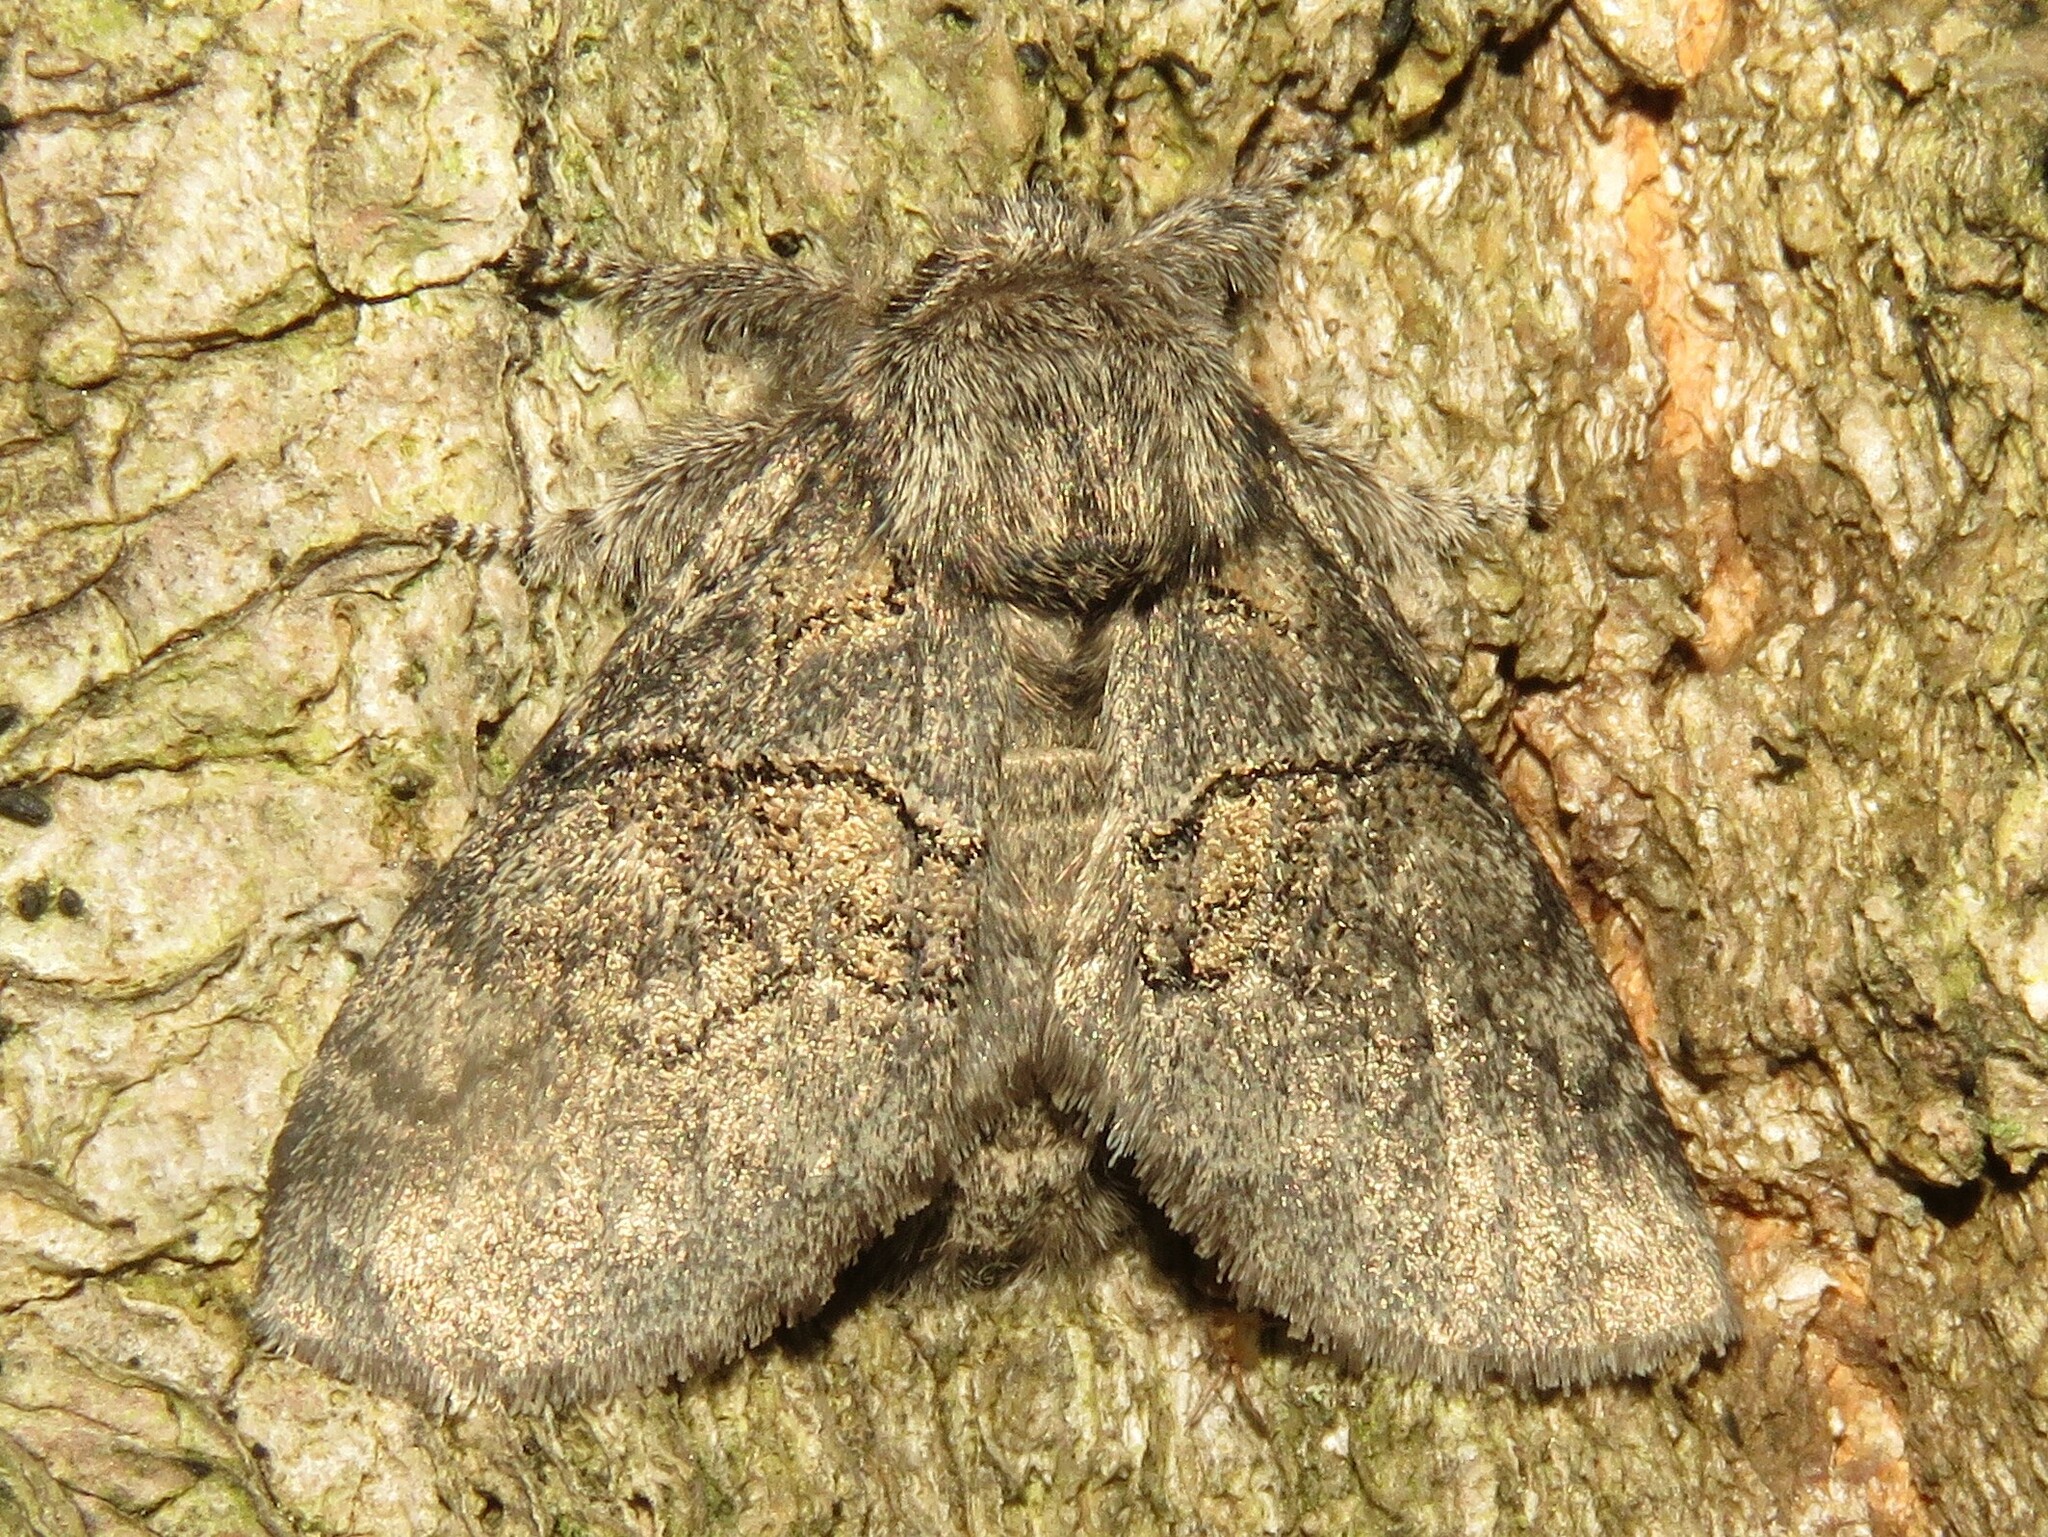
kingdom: Animalia
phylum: Arthropoda
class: Insecta
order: Lepidoptera
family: Notodontidae
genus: Gluphisia
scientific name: Gluphisia septentrionis
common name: Common gluphisia
